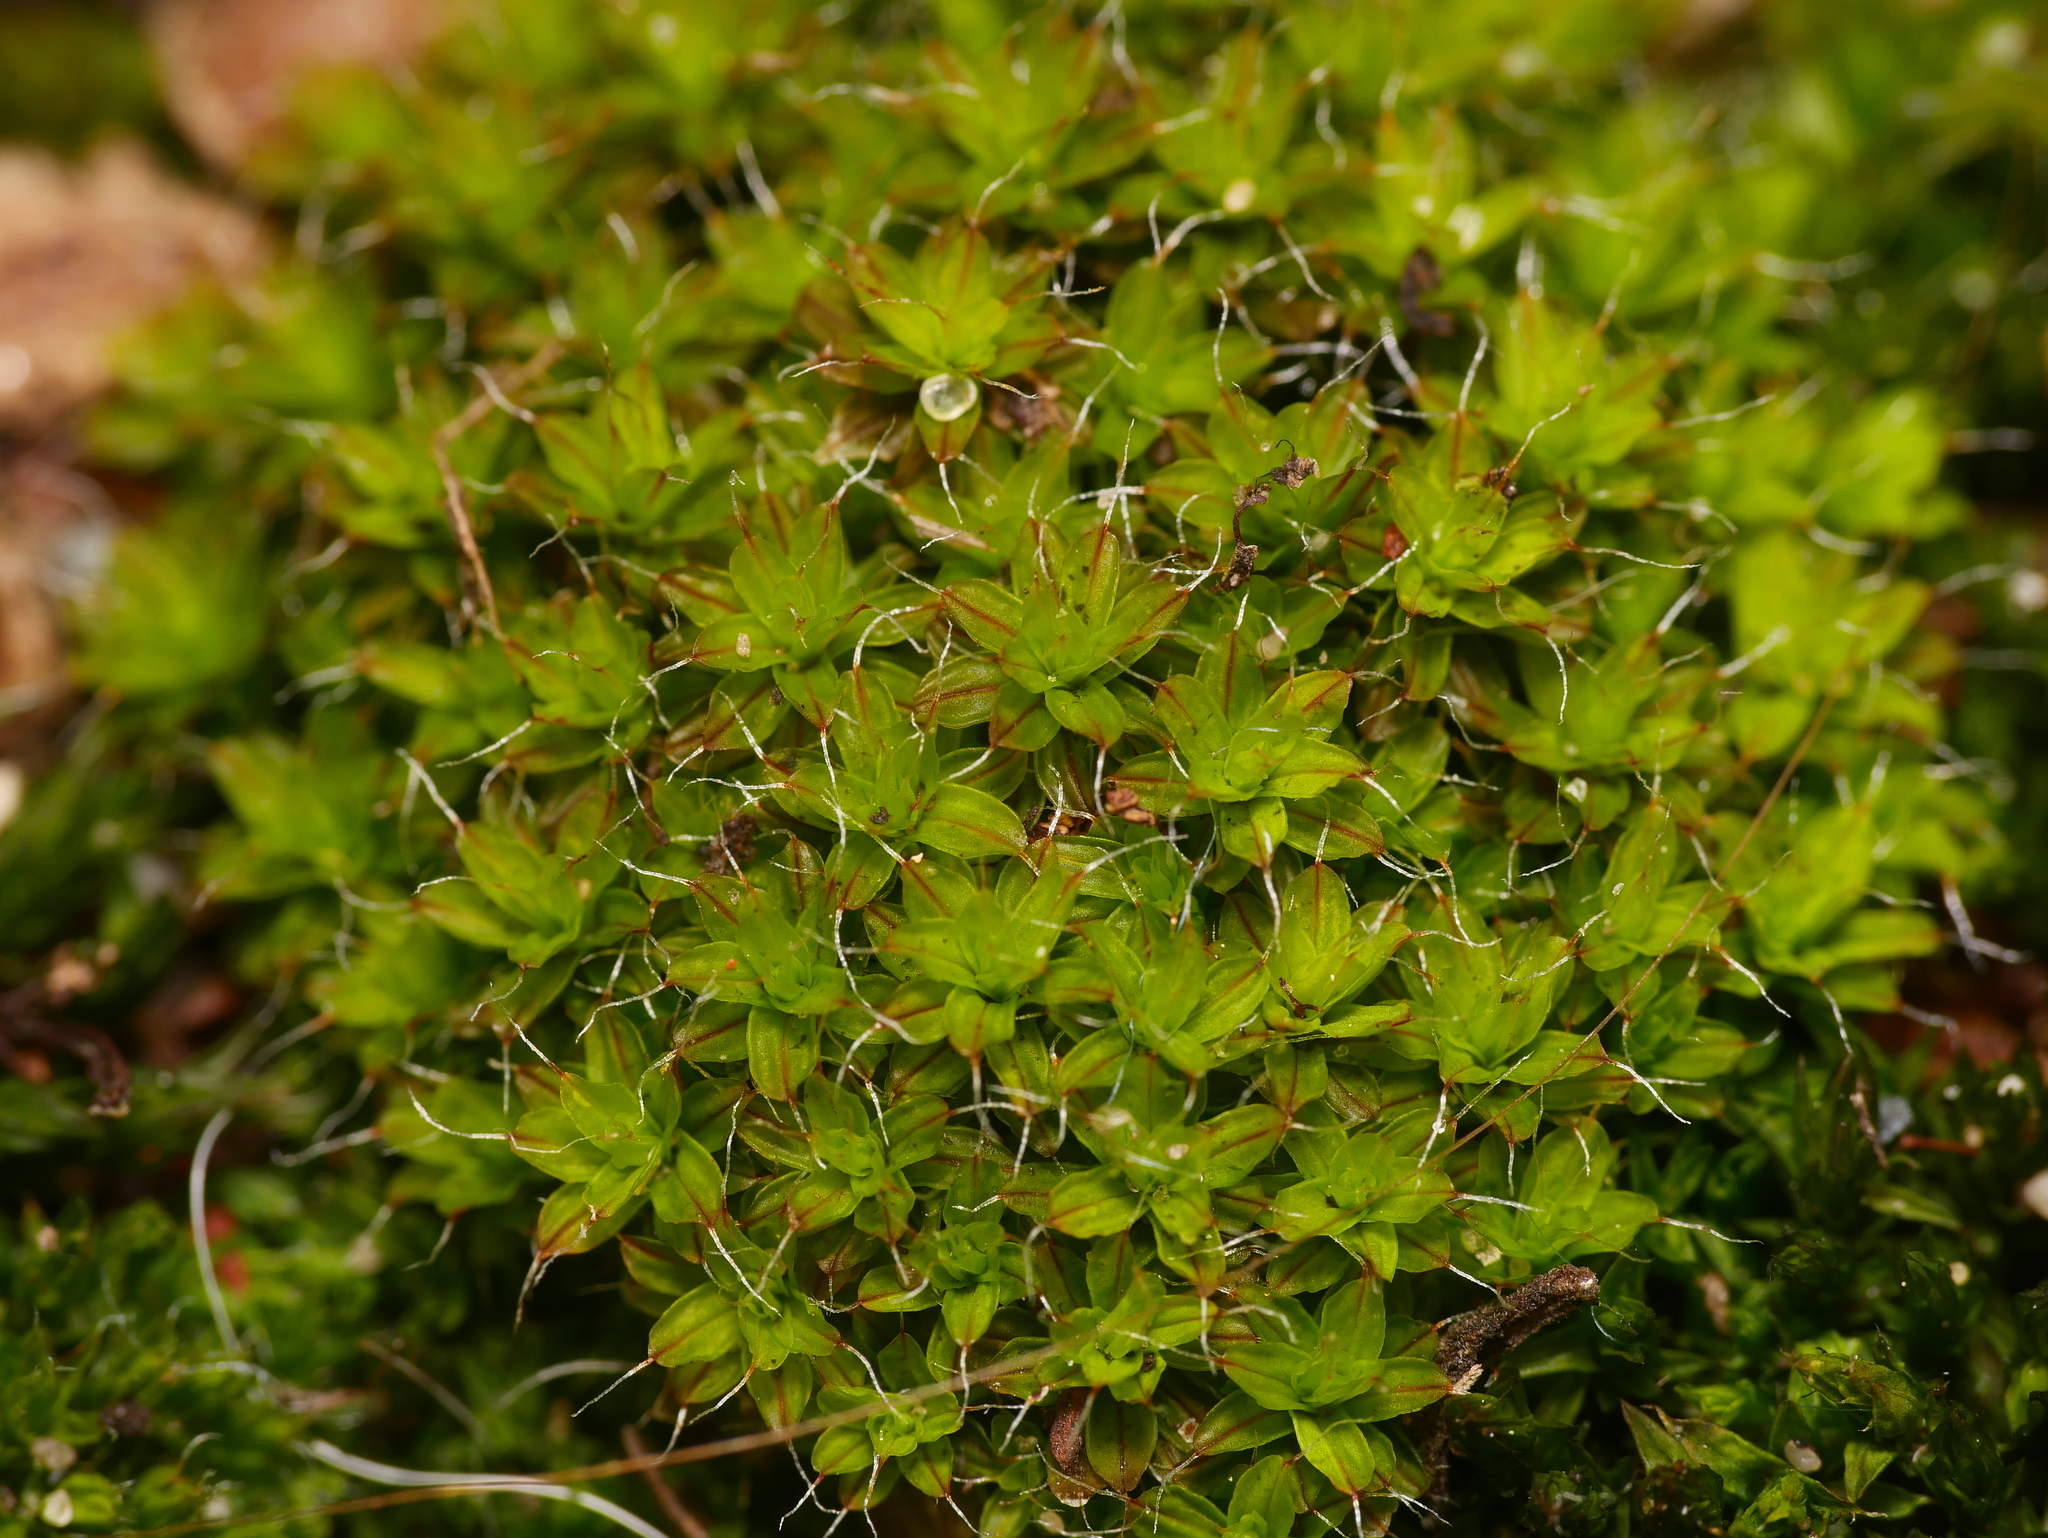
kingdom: Plantae
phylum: Bryophyta
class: Bryopsida
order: Pottiales
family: Pottiaceae
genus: Syntrichia
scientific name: Syntrichia ruralis
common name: Sidewalk screw moss
